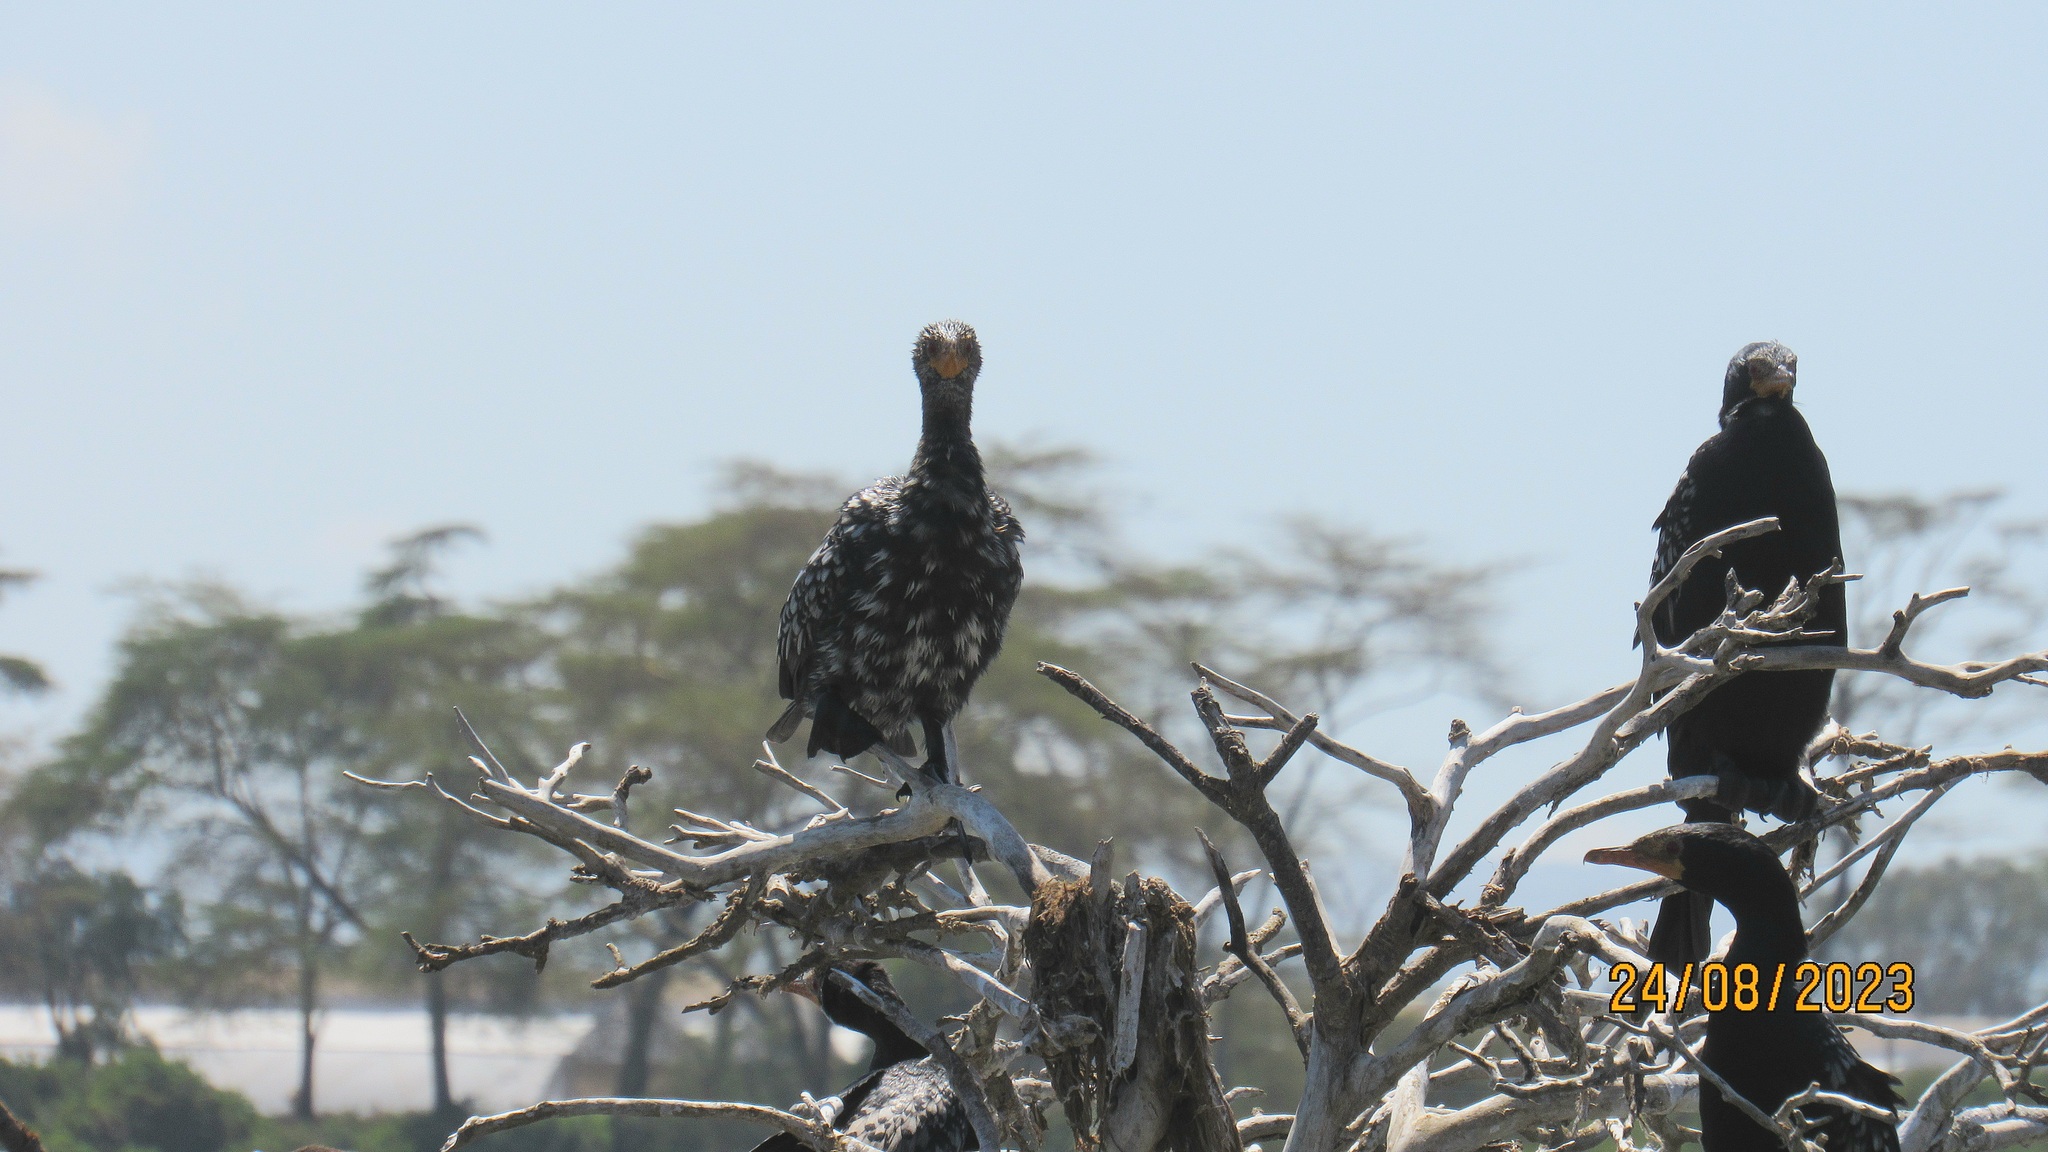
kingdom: Animalia
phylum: Chordata
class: Aves
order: Suliformes
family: Phalacrocoracidae
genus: Microcarbo
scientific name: Microcarbo africanus
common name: Long-tailed cormorant
